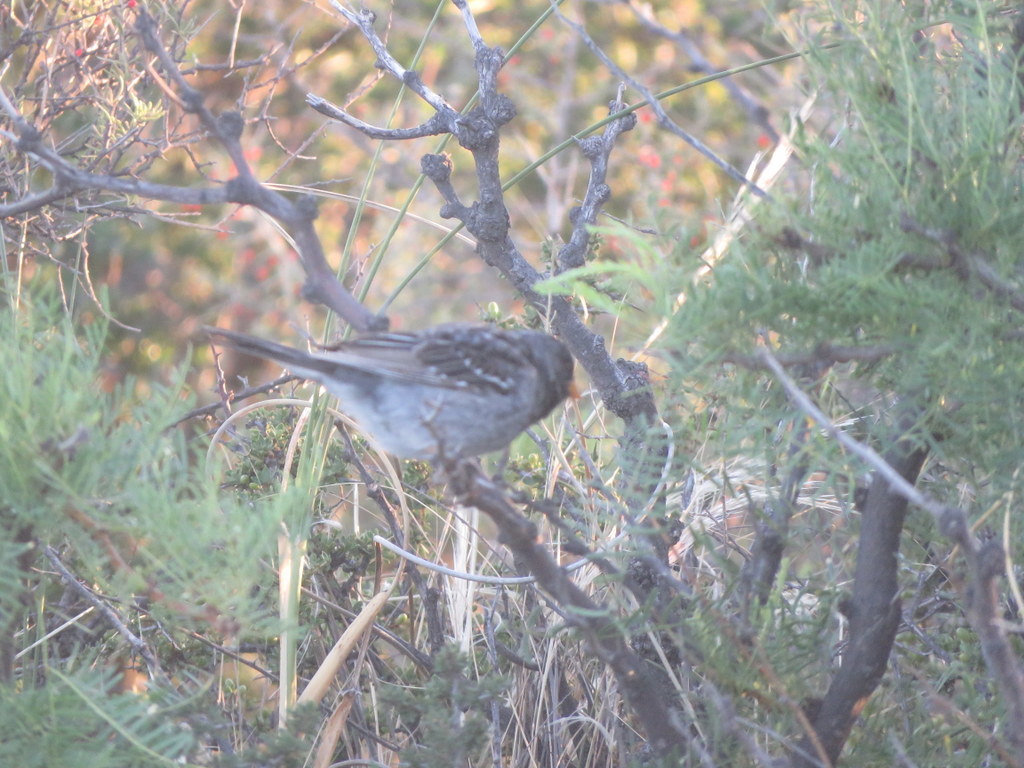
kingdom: Animalia
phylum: Chordata
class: Aves
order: Passeriformes
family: Thraupidae
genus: Rhopospina
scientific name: Rhopospina fruticeti
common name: Mourning sierra finch
